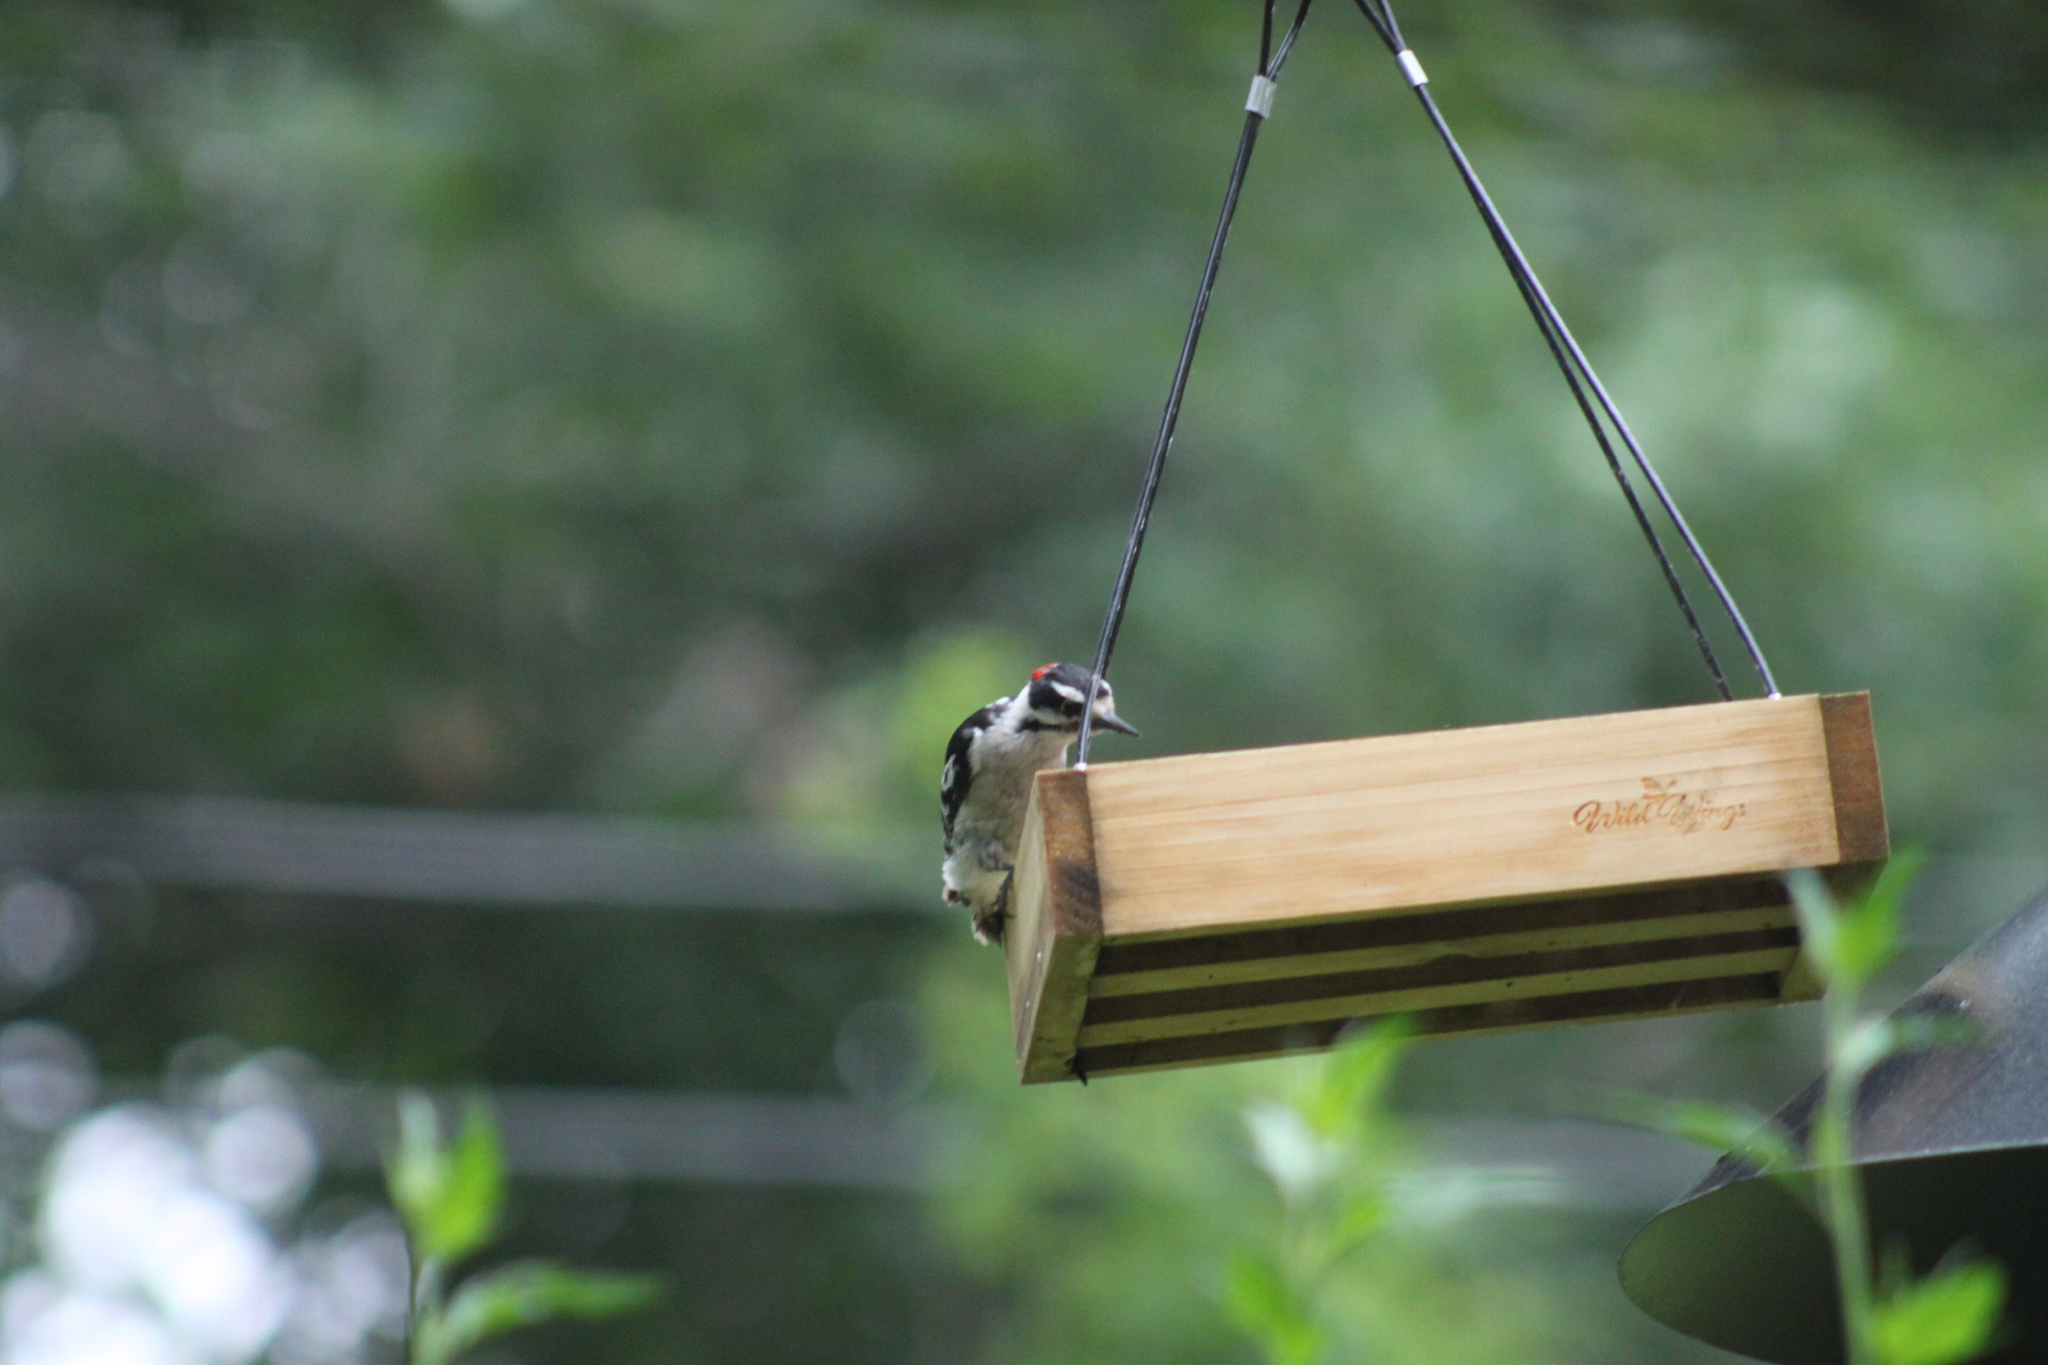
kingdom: Animalia
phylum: Chordata
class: Aves
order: Piciformes
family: Picidae
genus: Dryobates
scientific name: Dryobates pubescens
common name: Downy woodpecker
